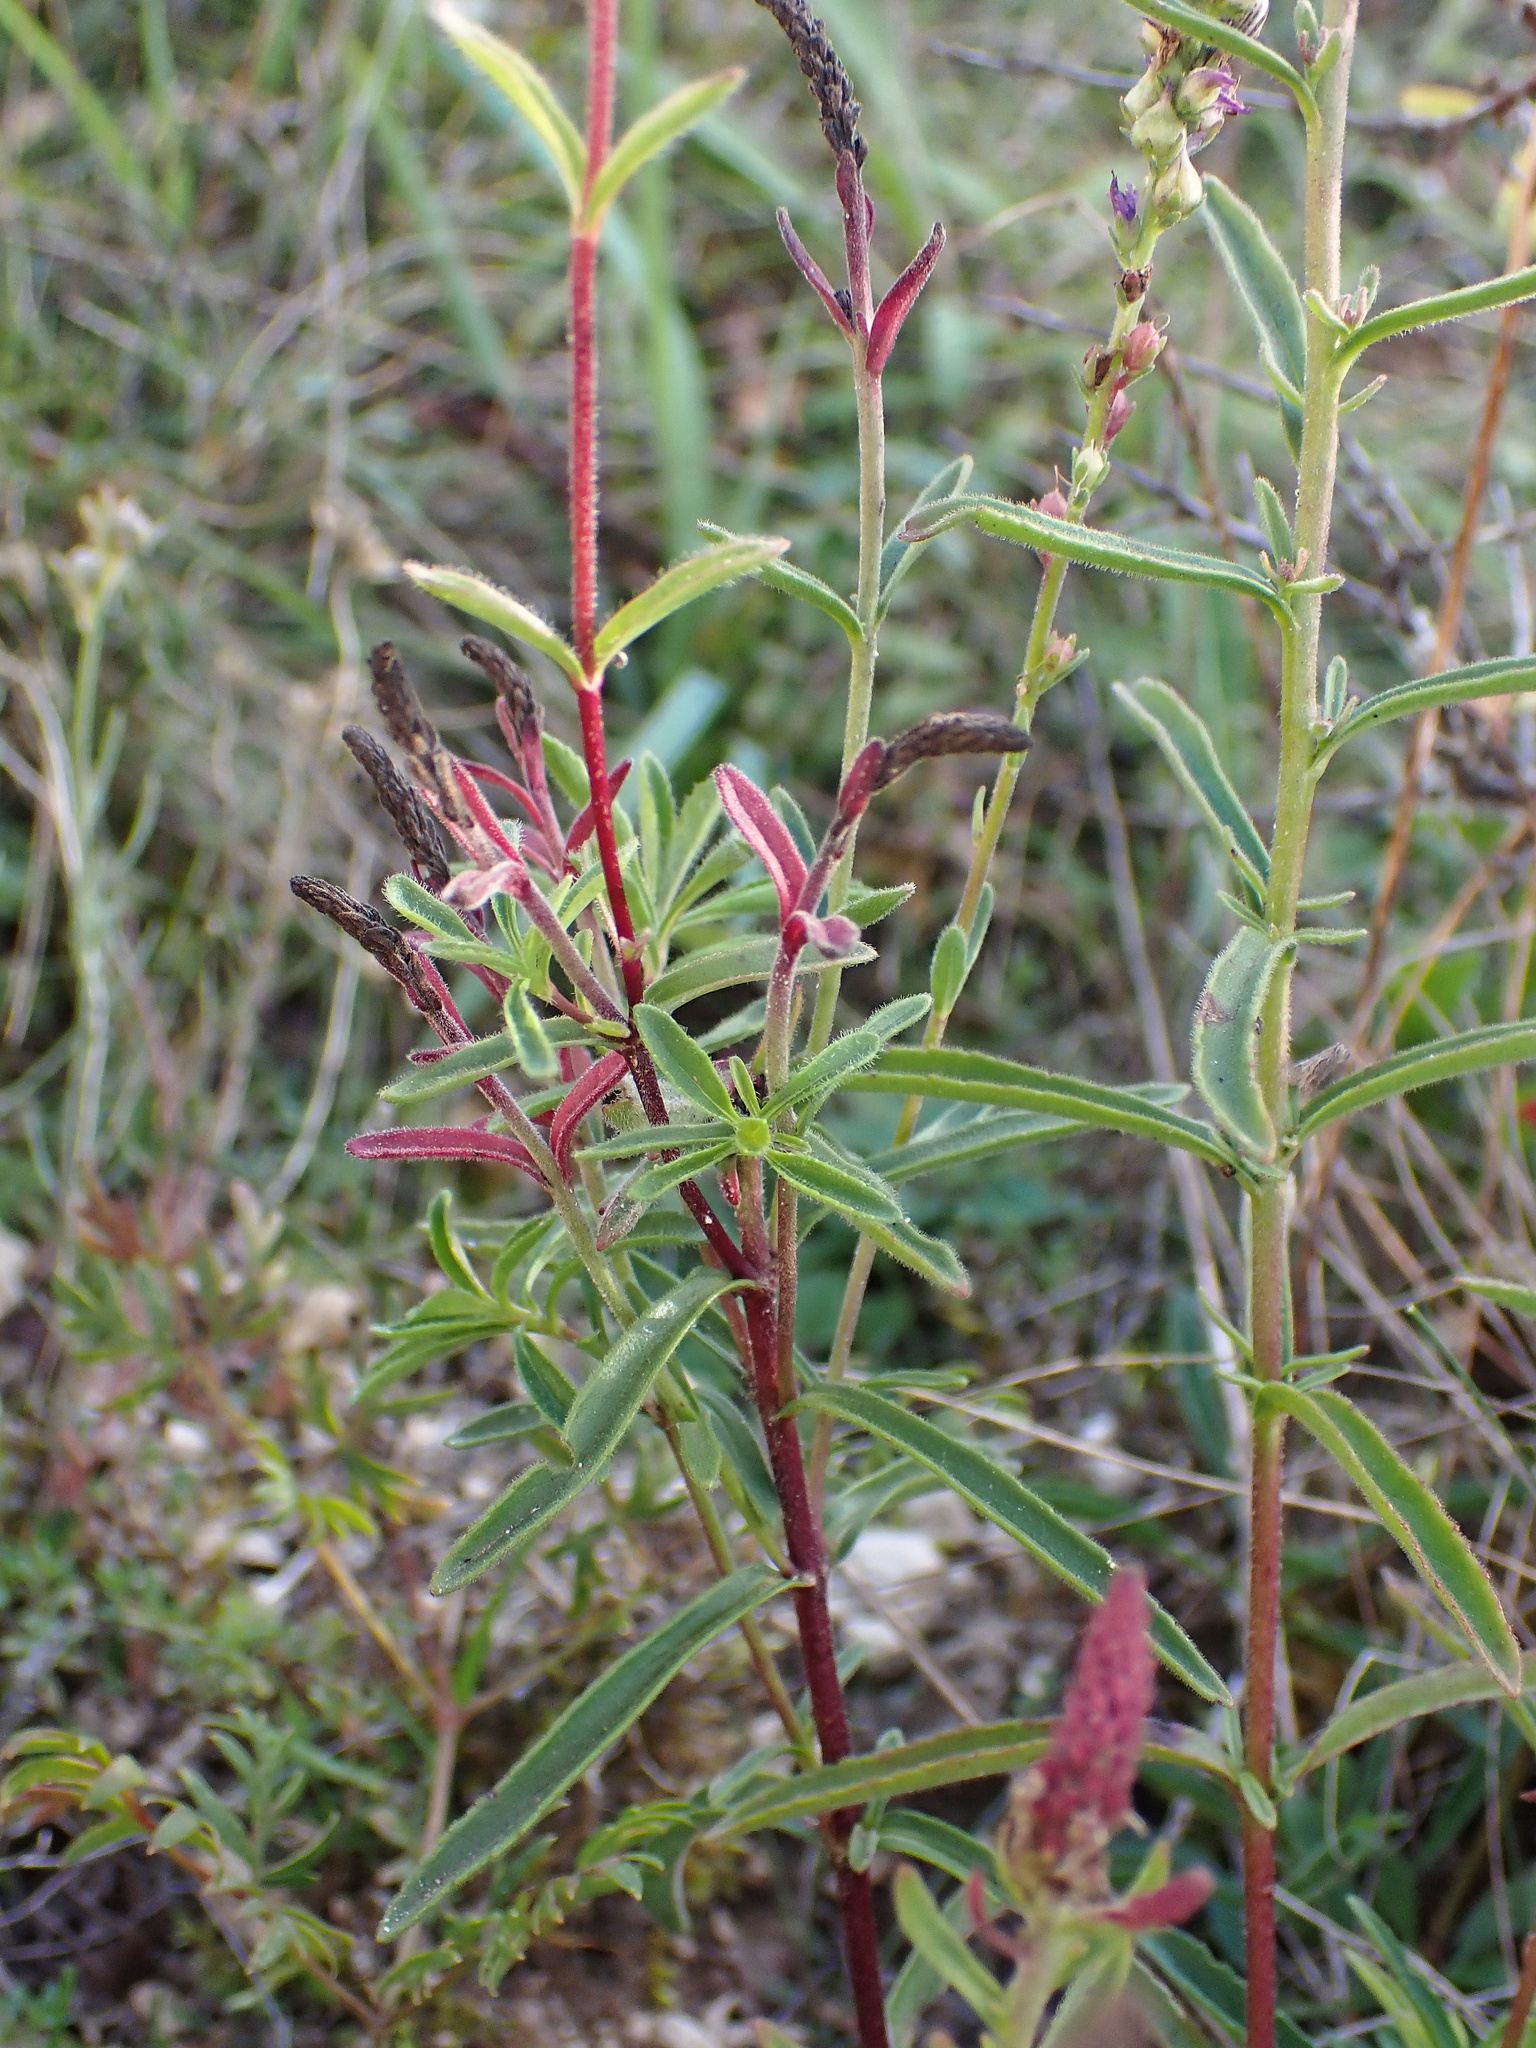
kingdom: Plantae
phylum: Tracheophyta
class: Magnoliopsida
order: Lamiales
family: Plantaginaceae
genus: Veronica
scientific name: Veronica spicata
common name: Spiked speedwell
